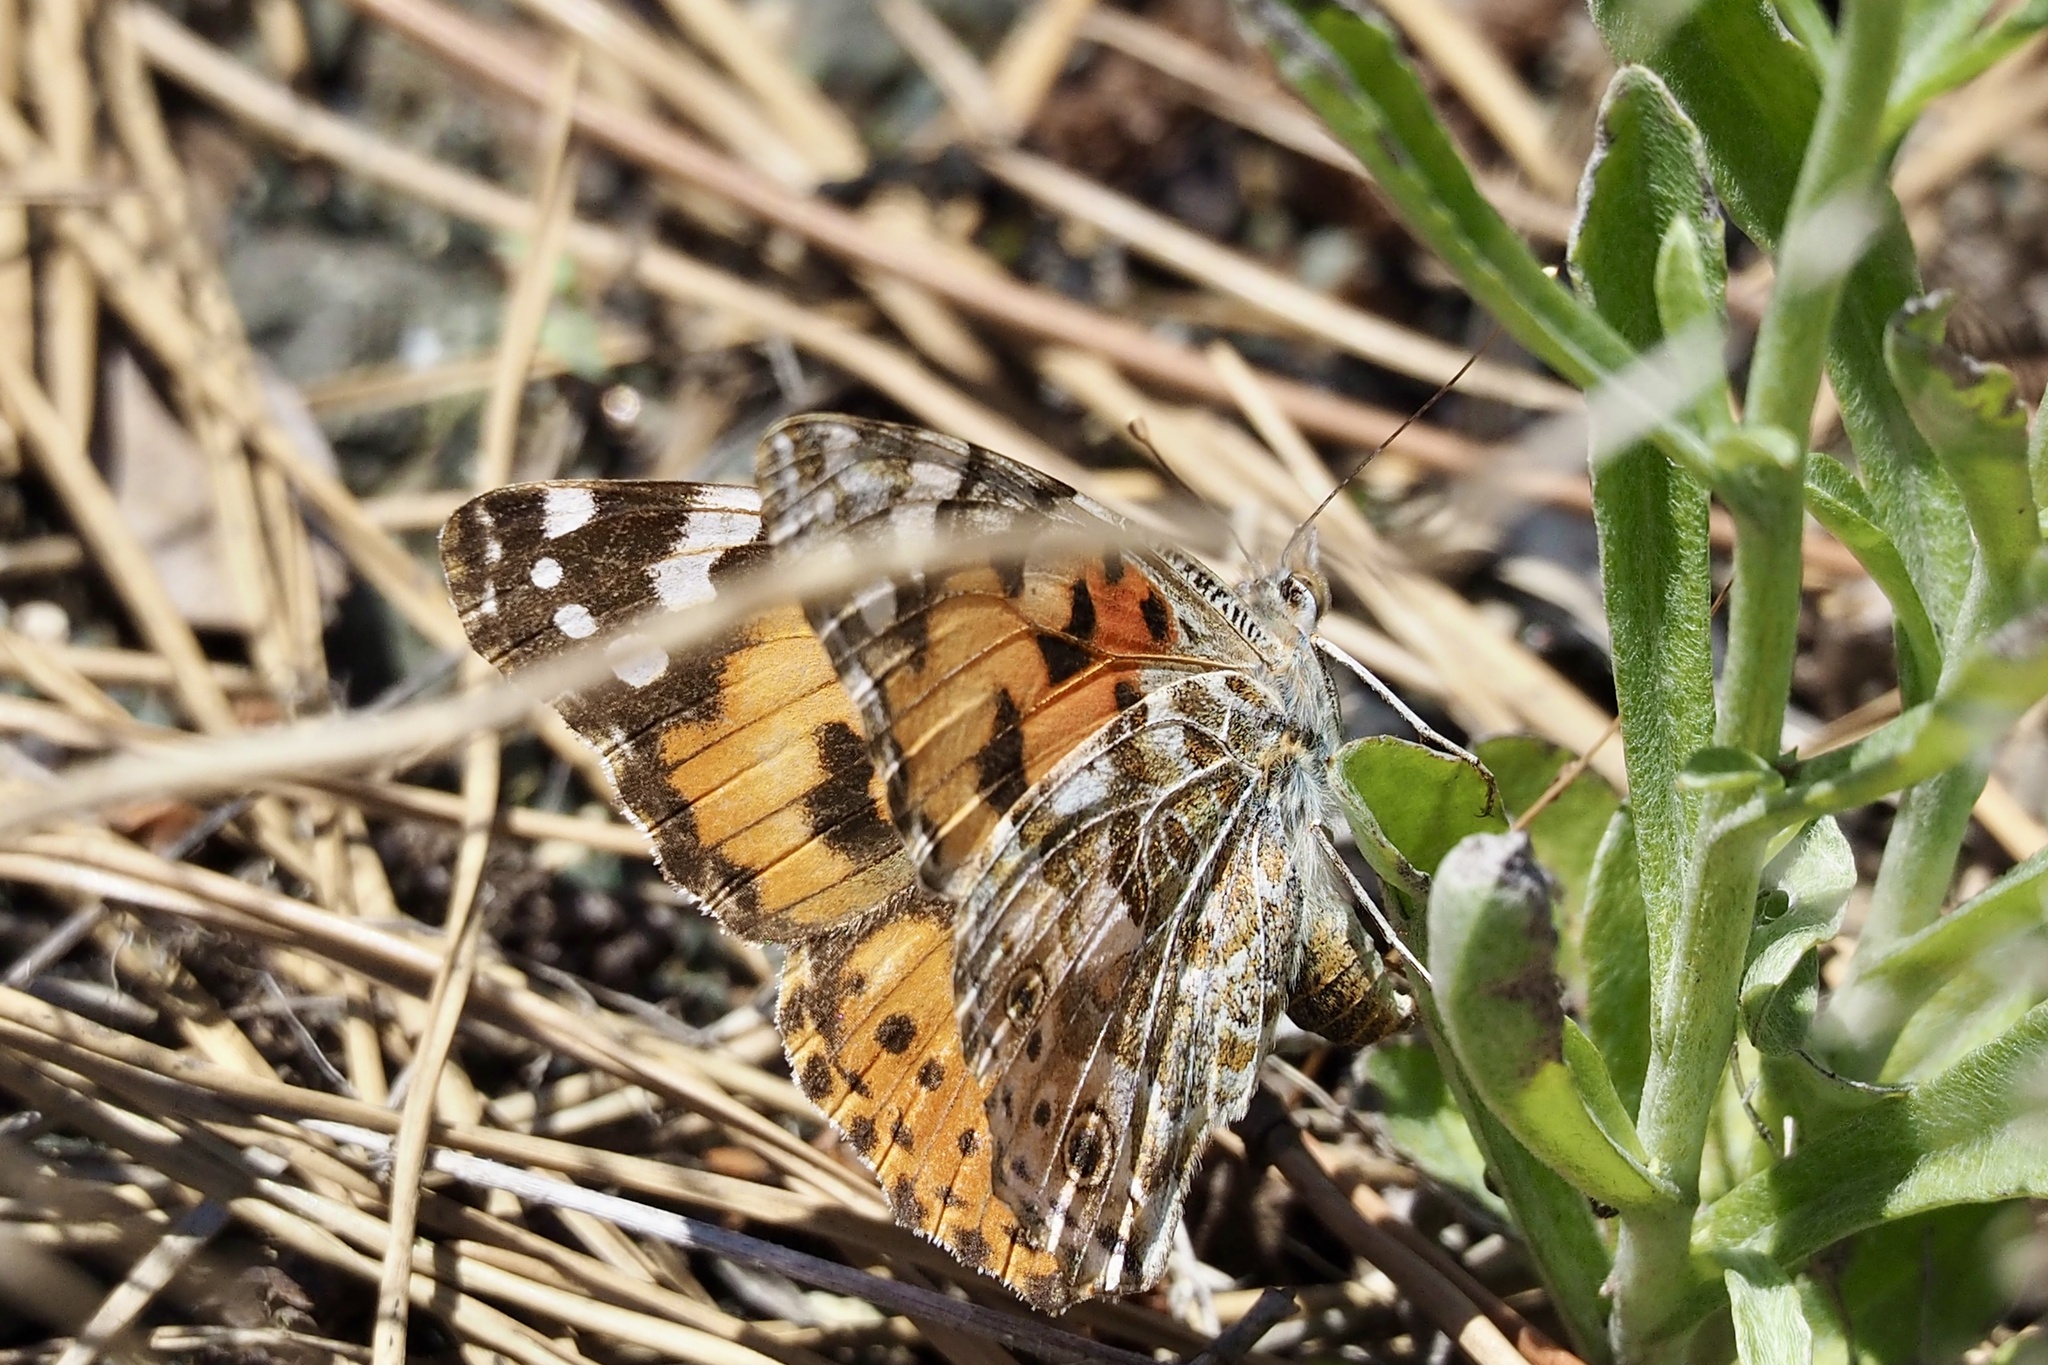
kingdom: Animalia
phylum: Arthropoda
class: Insecta
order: Lepidoptera
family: Nymphalidae
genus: Vanessa
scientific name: Vanessa cardui
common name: Painted lady
